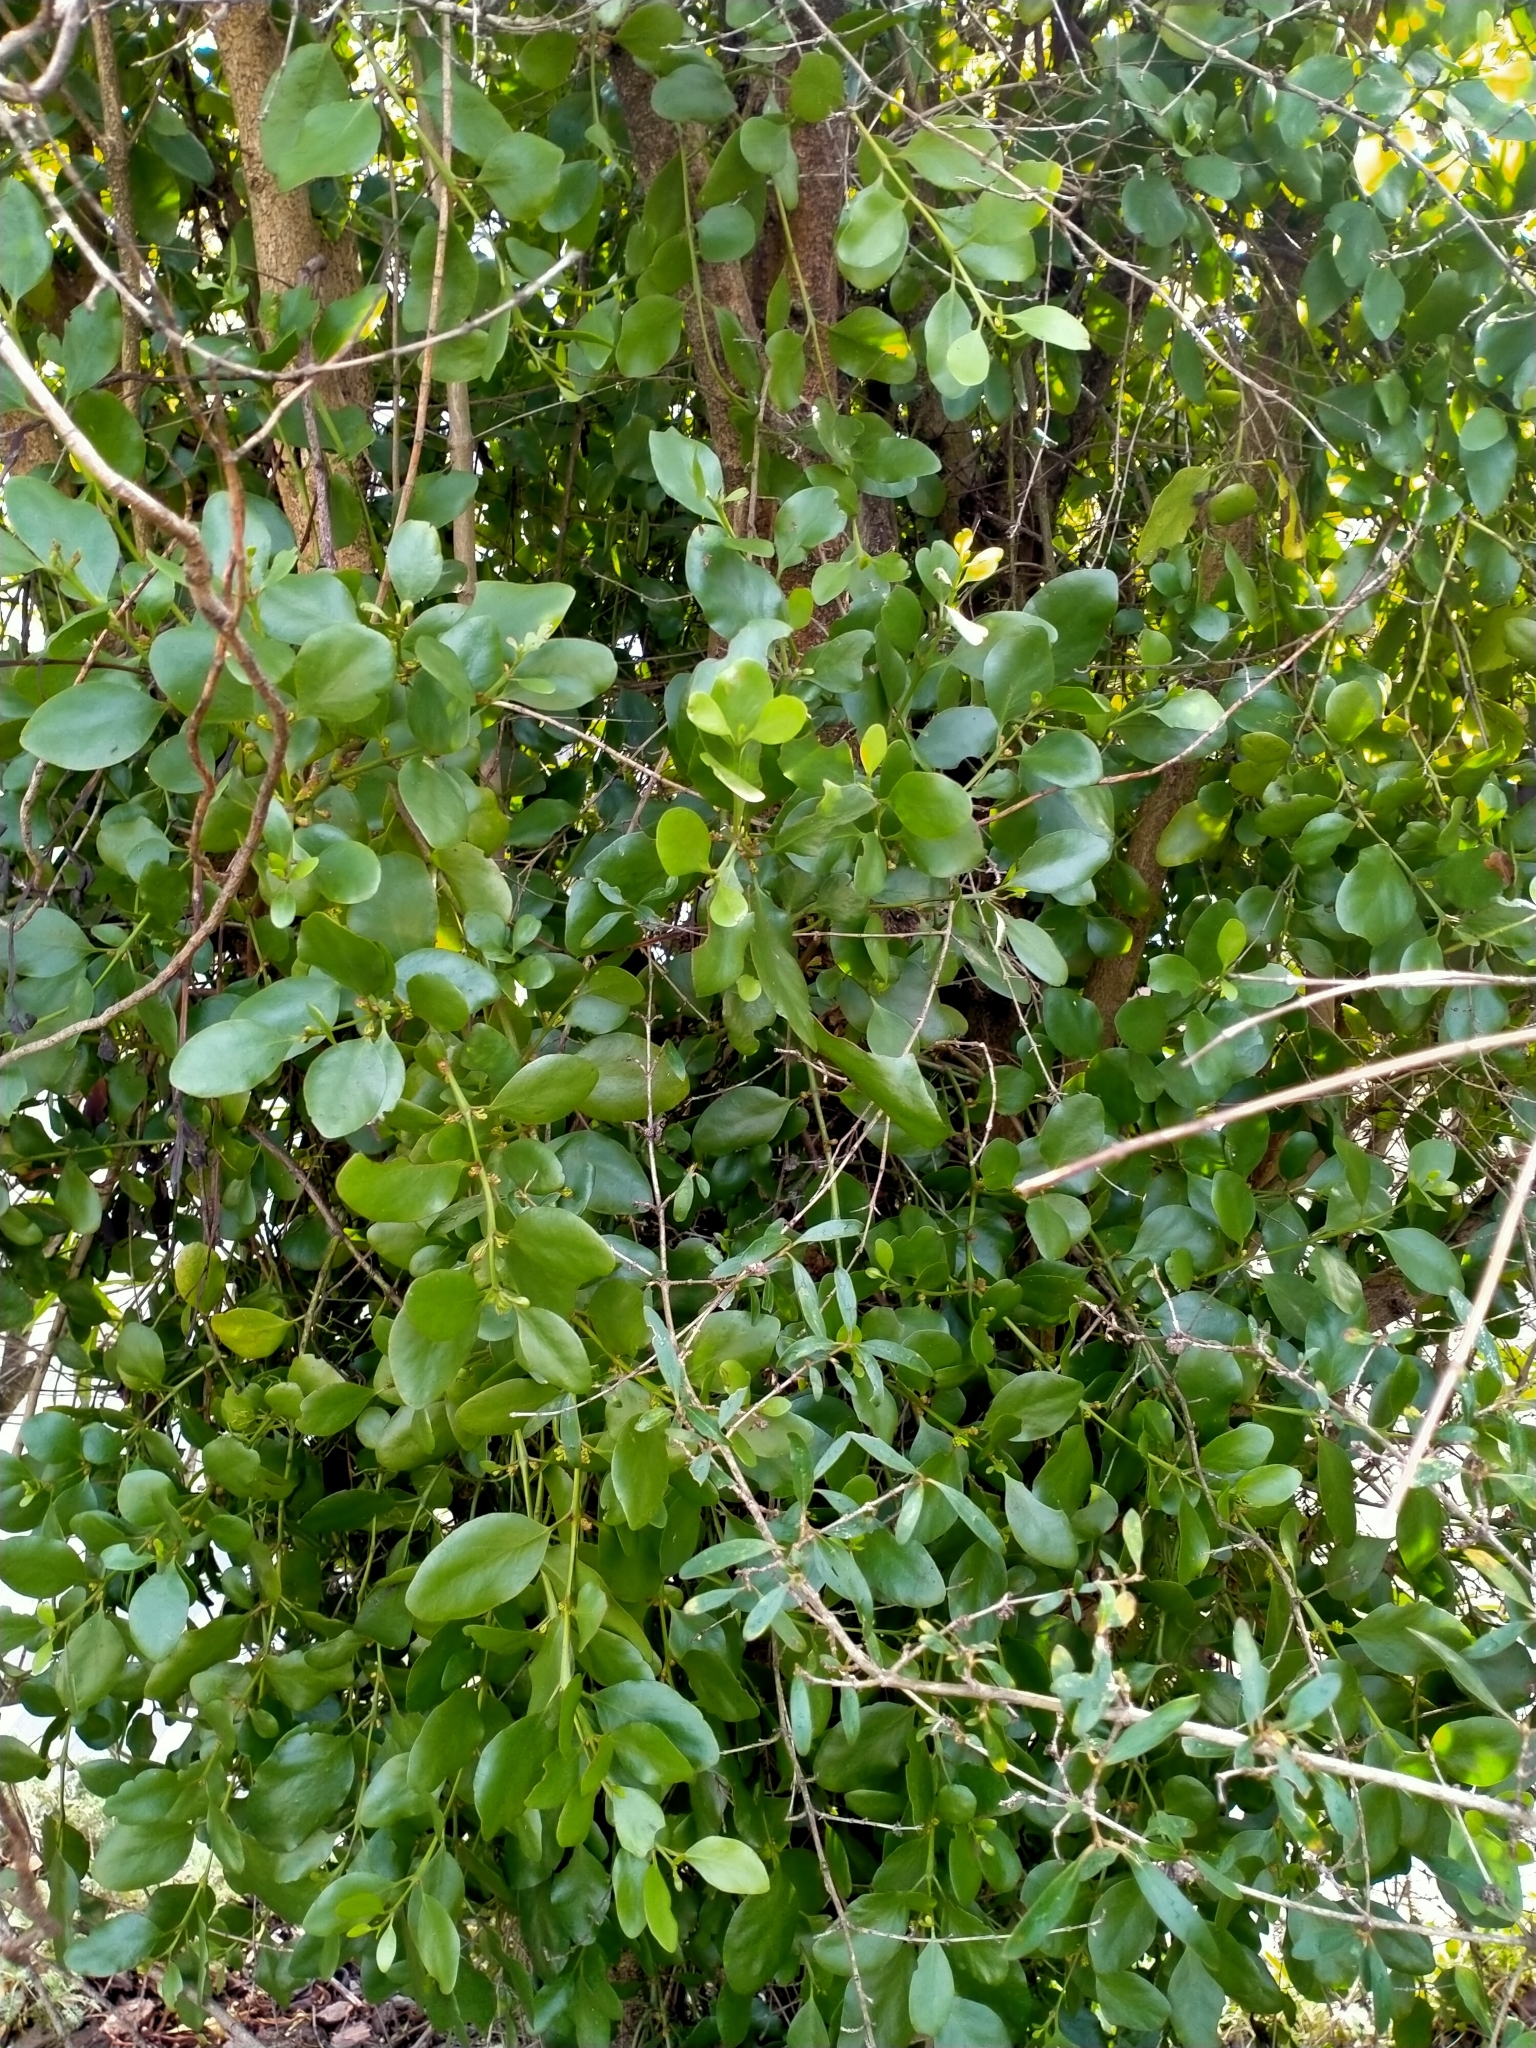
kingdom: Plantae
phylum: Tracheophyta
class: Magnoliopsida
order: Santalales
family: Loranthaceae
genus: Ileostylus
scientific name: Ileostylus micranthus
